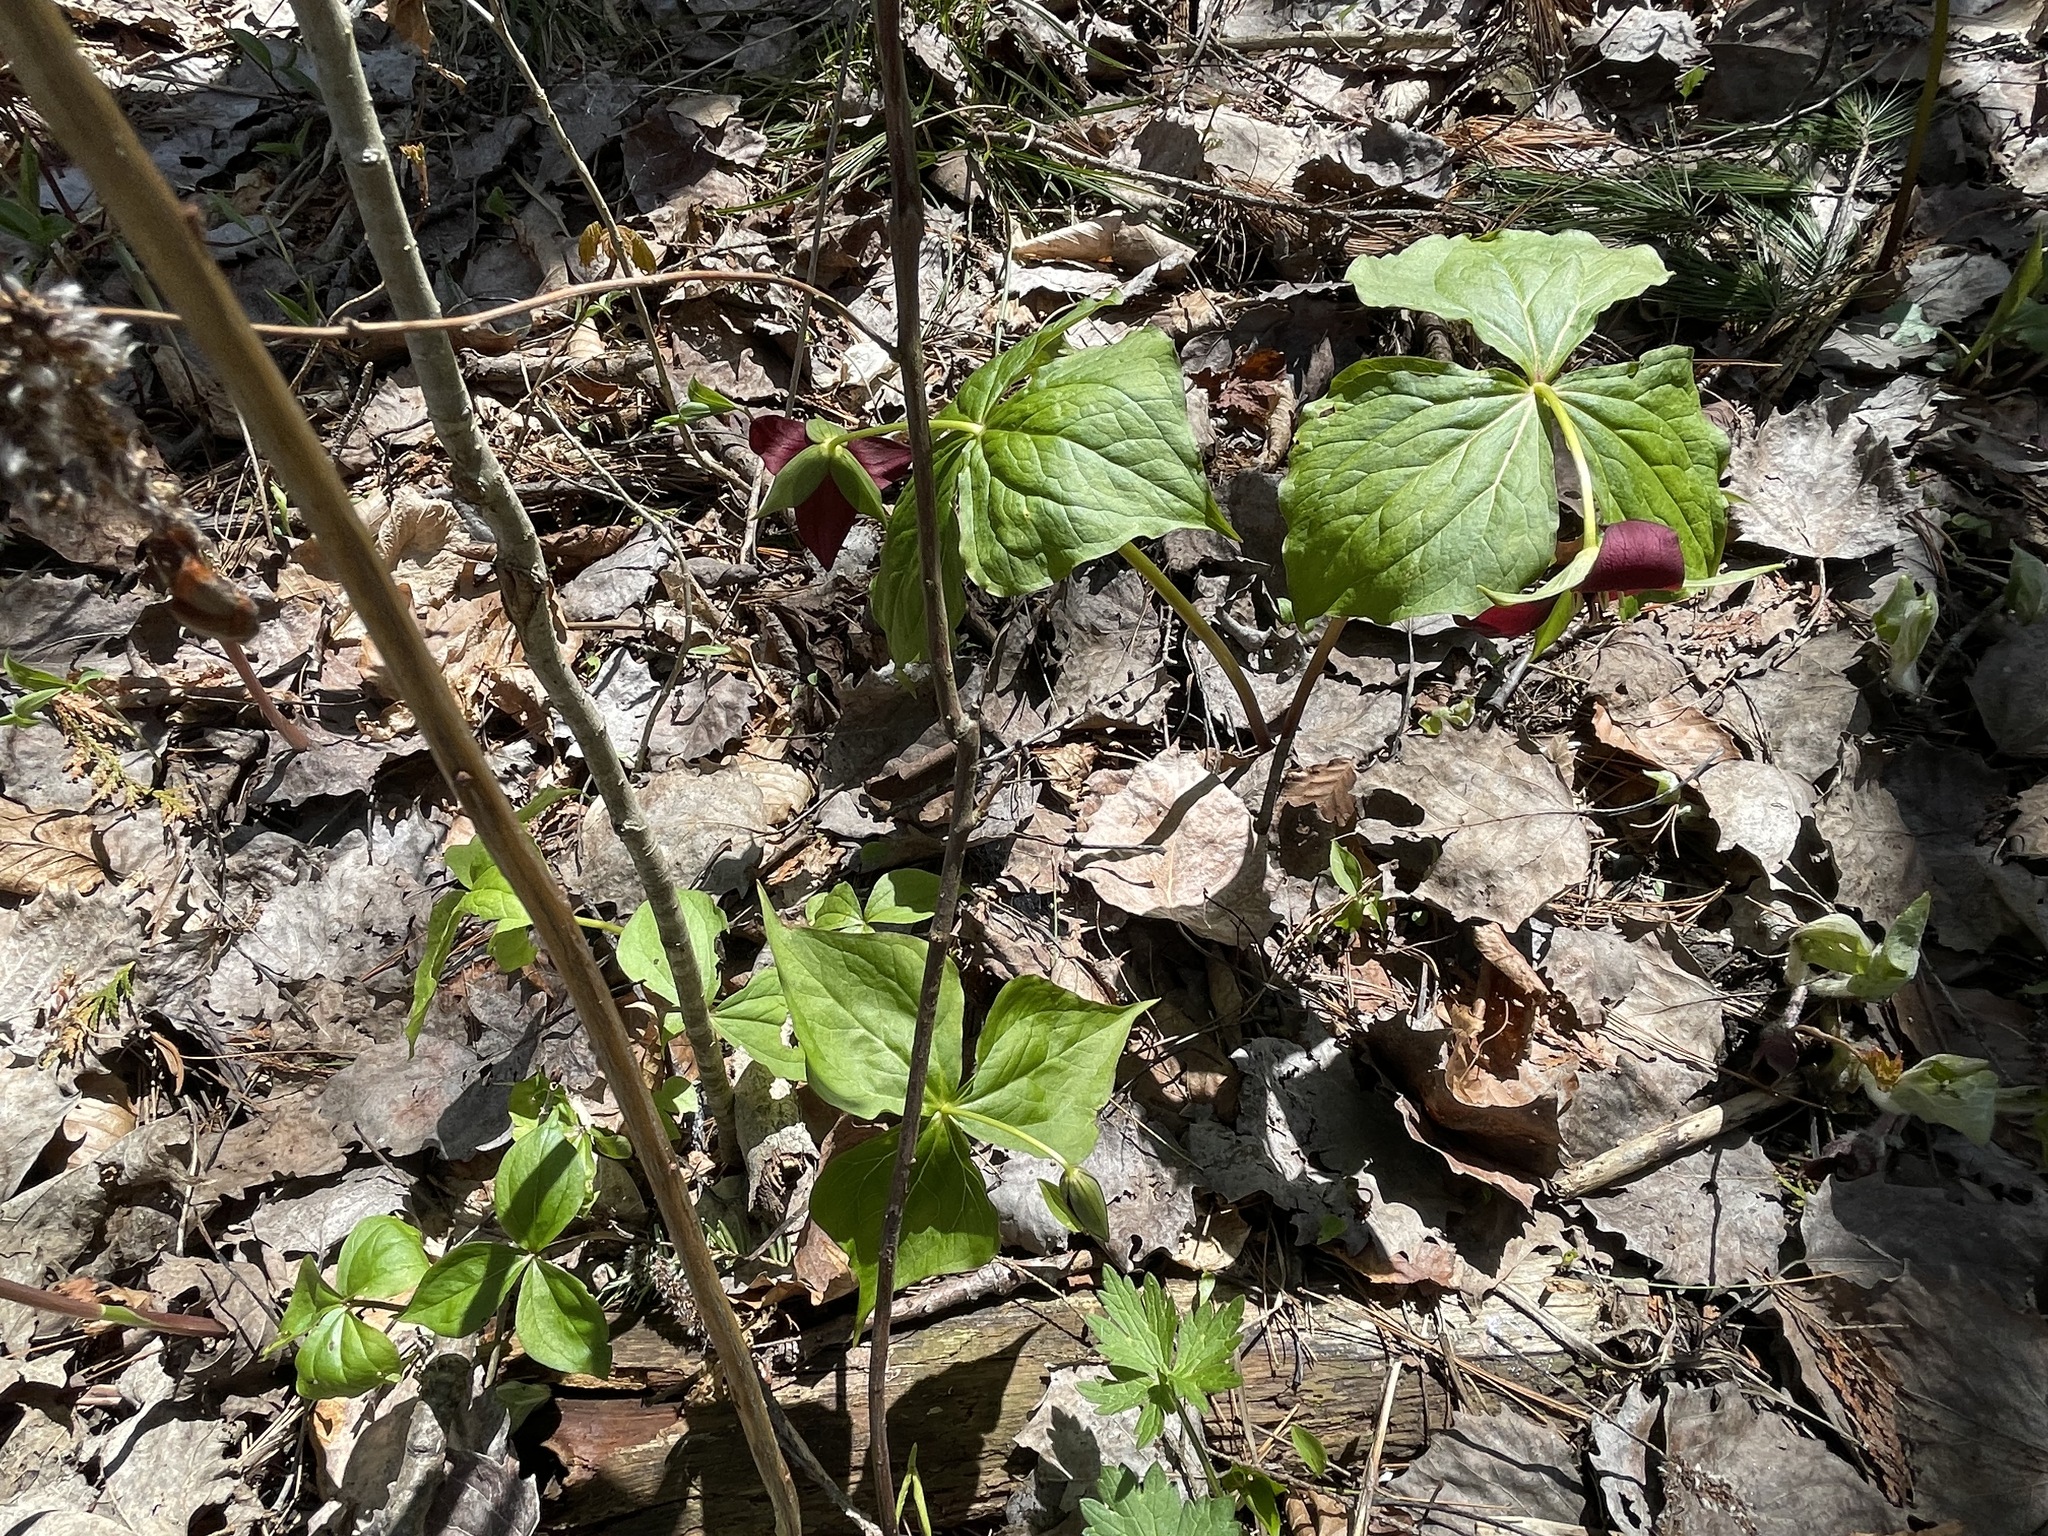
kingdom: Plantae
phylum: Tracheophyta
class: Liliopsida
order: Liliales
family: Melanthiaceae
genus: Trillium
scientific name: Trillium erectum
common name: Purple trillium
